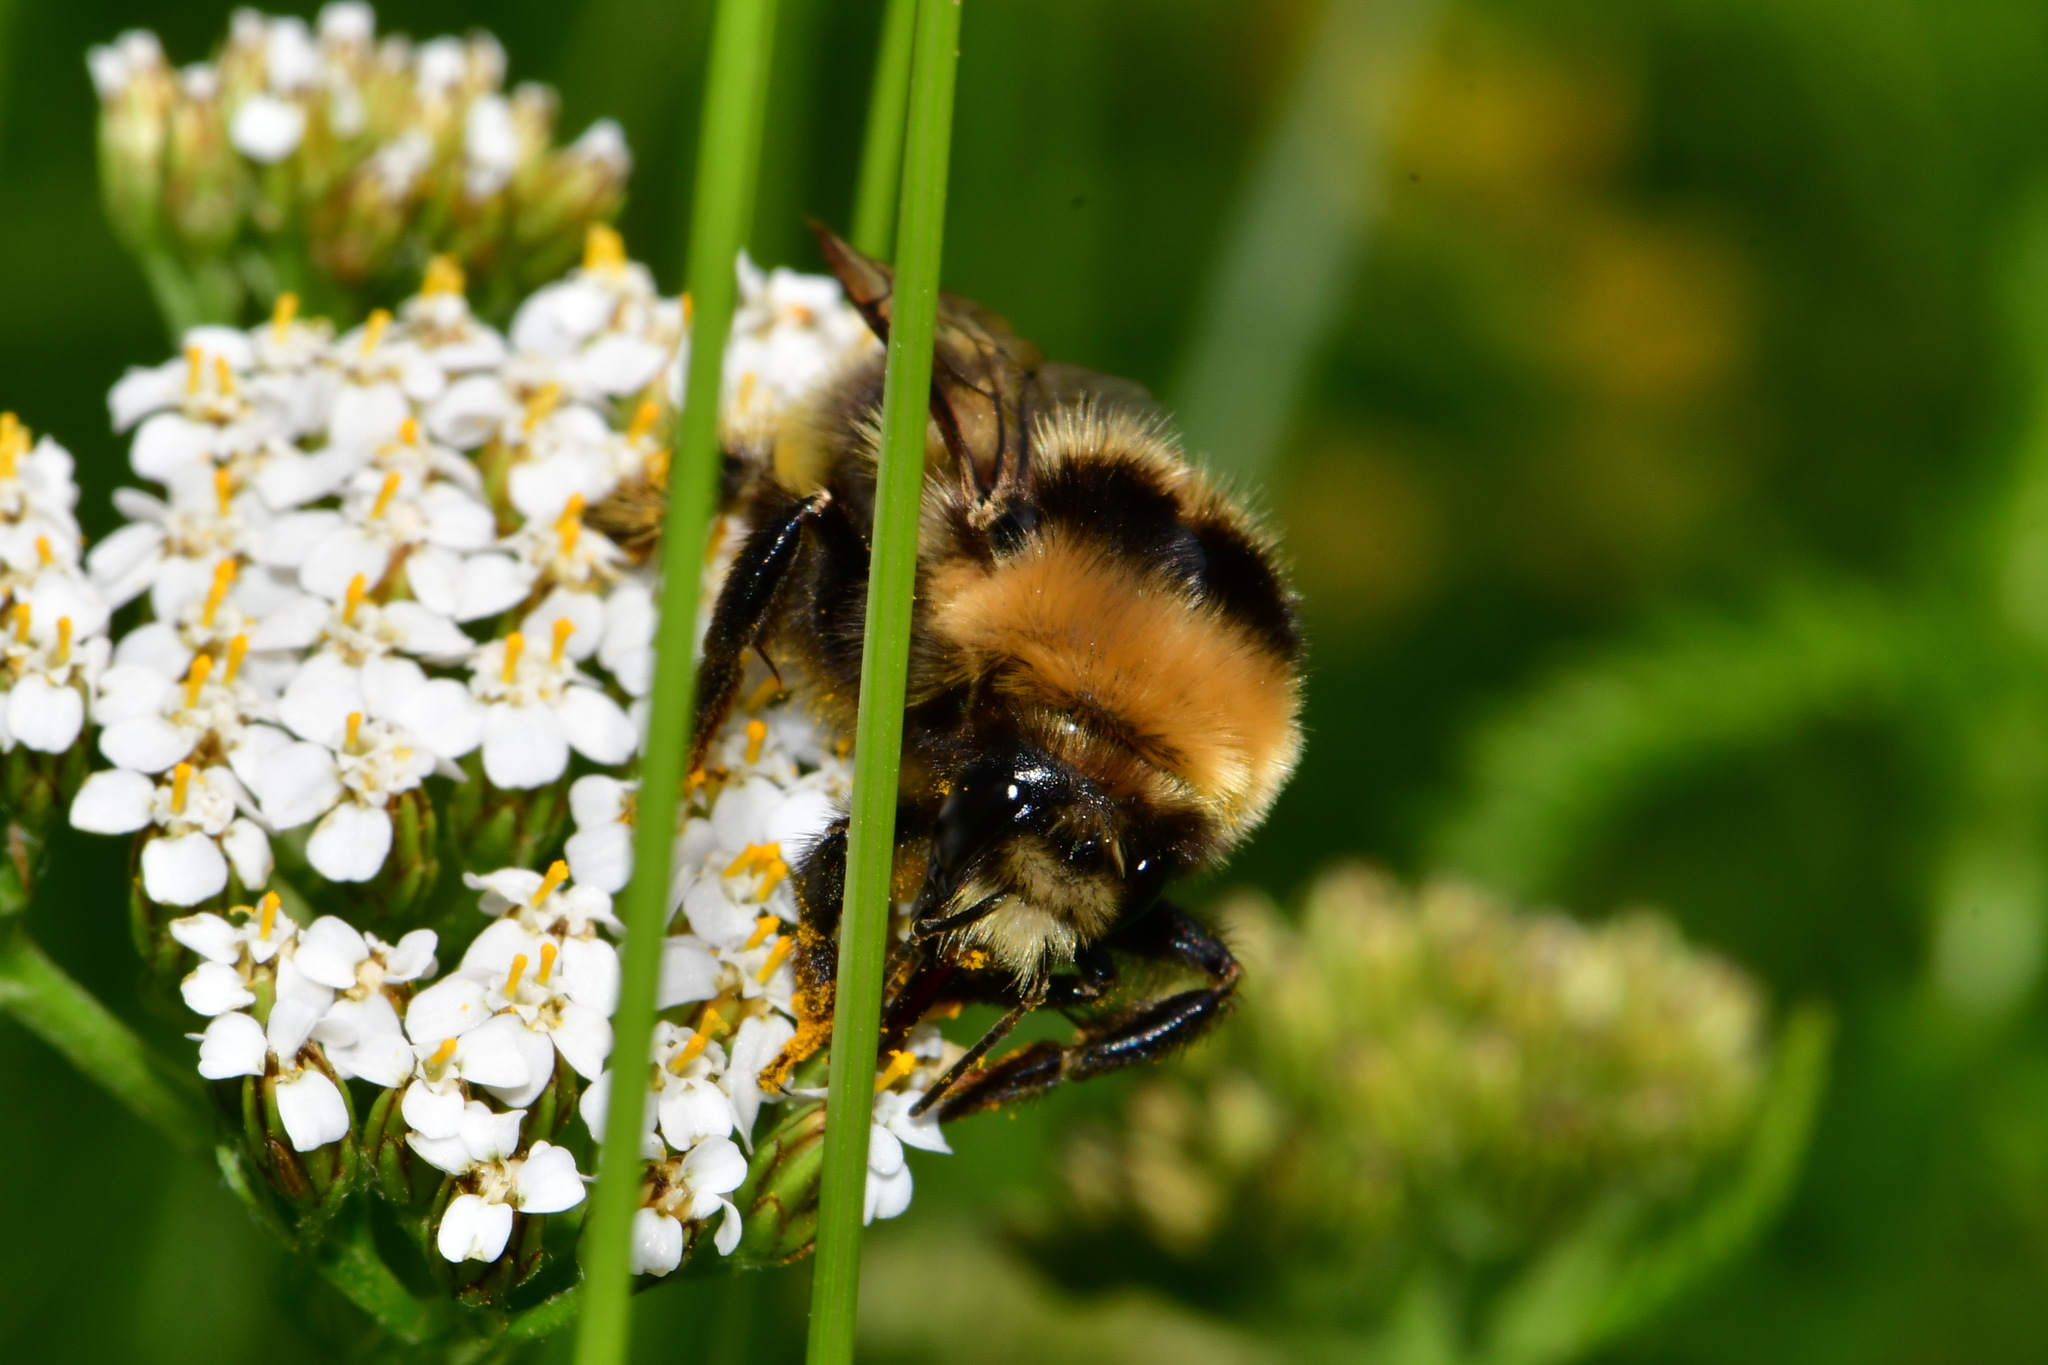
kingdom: Animalia
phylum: Arthropoda
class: Insecta
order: Hymenoptera
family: Apidae
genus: Bombus
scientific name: Bombus semenoviellus
